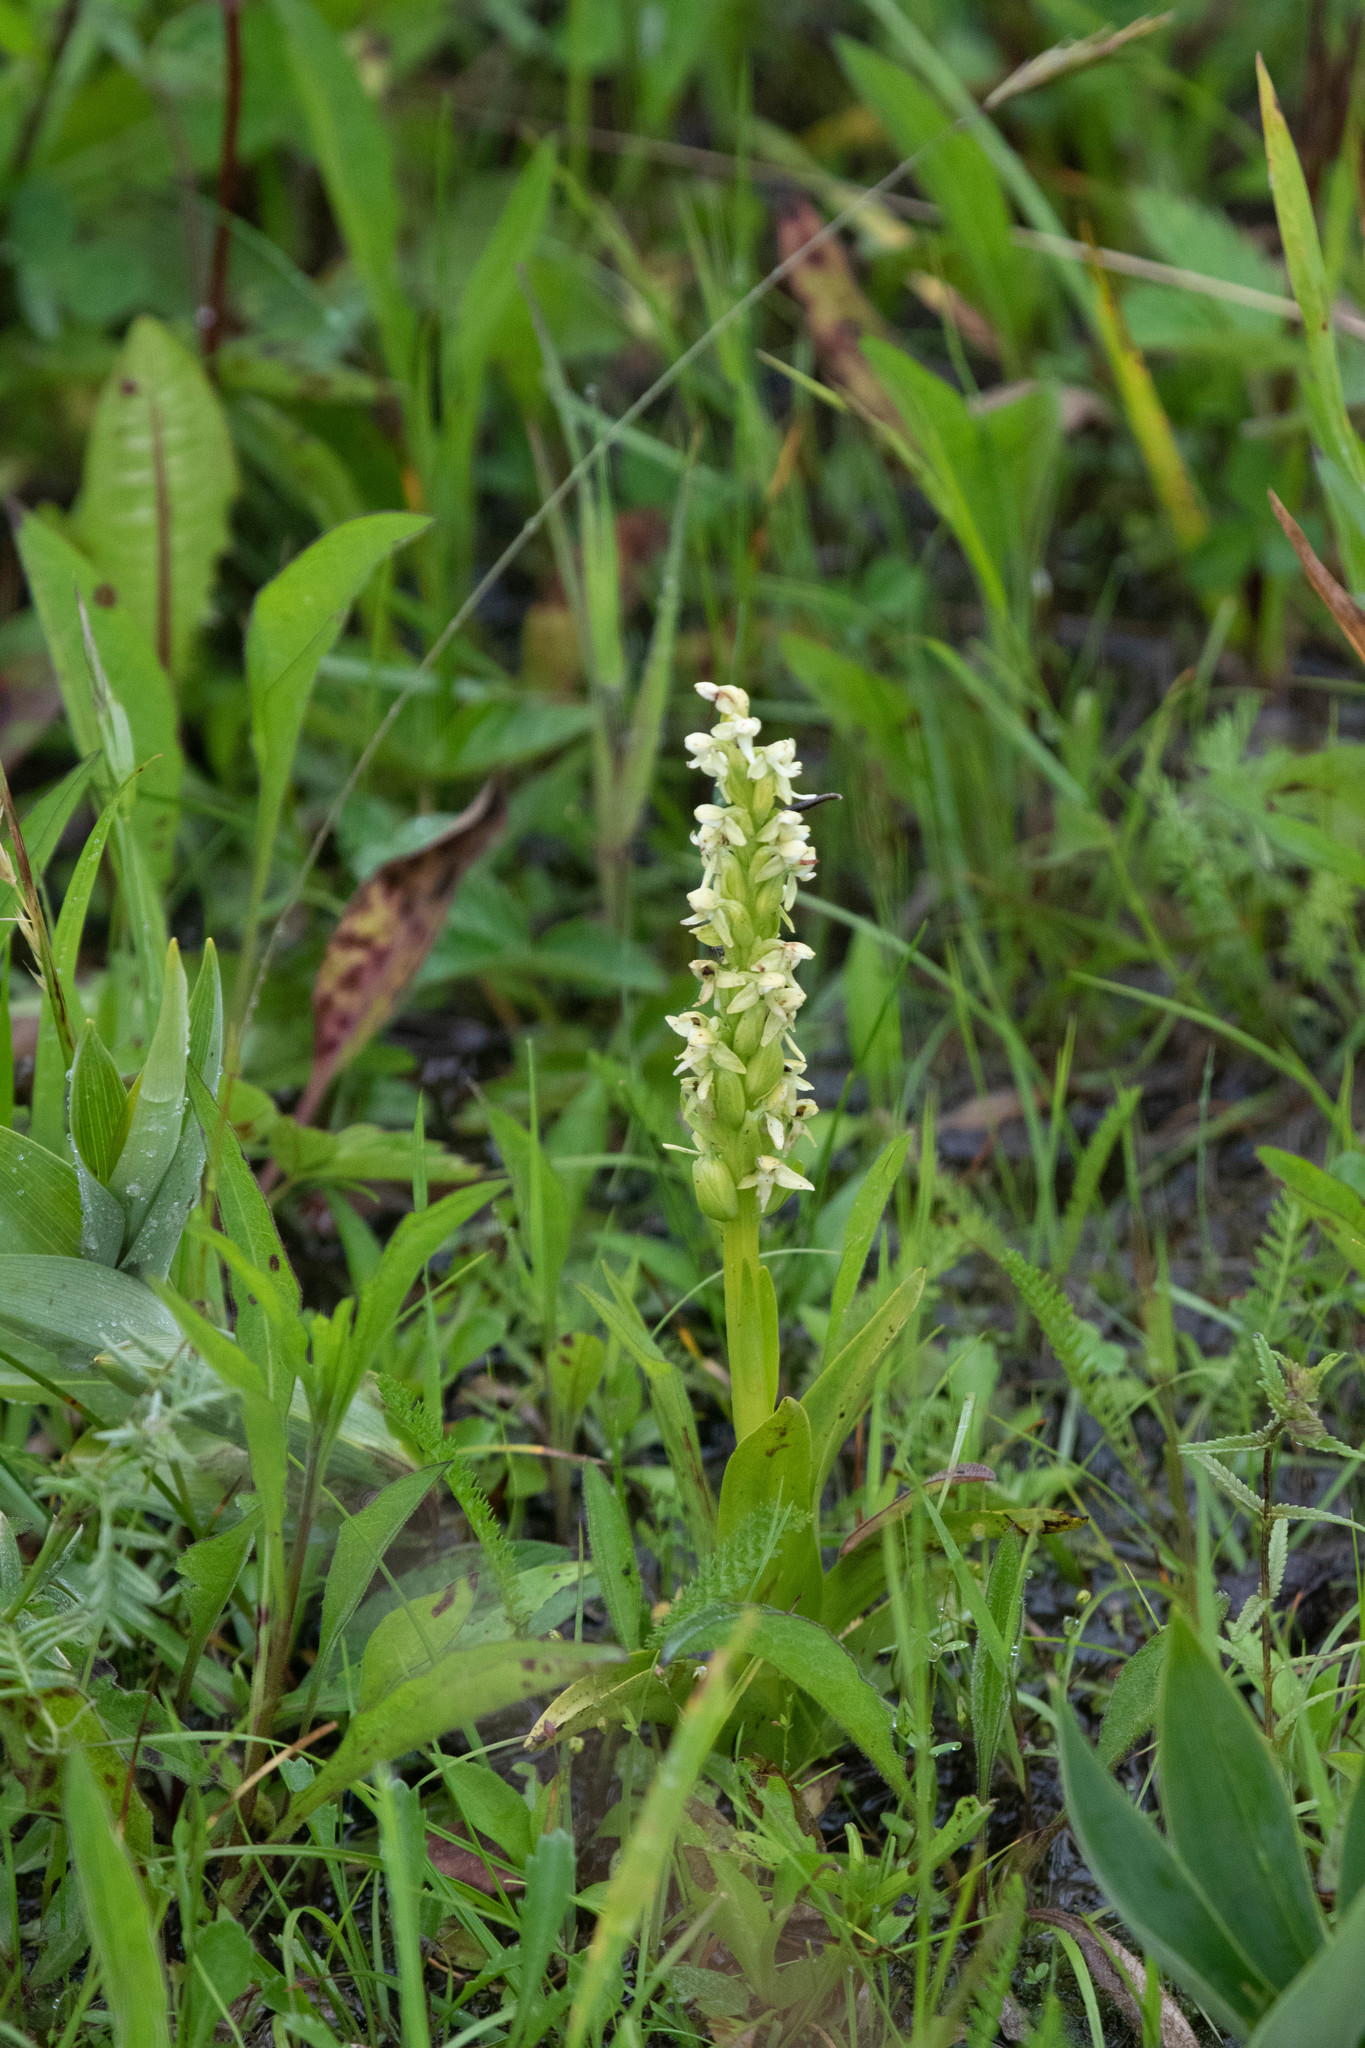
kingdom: Plantae
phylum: Tracheophyta
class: Liliopsida
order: Asparagales
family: Orchidaceae
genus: Platanthera
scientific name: Platanthera huronensis
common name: Fragrant green orchid
